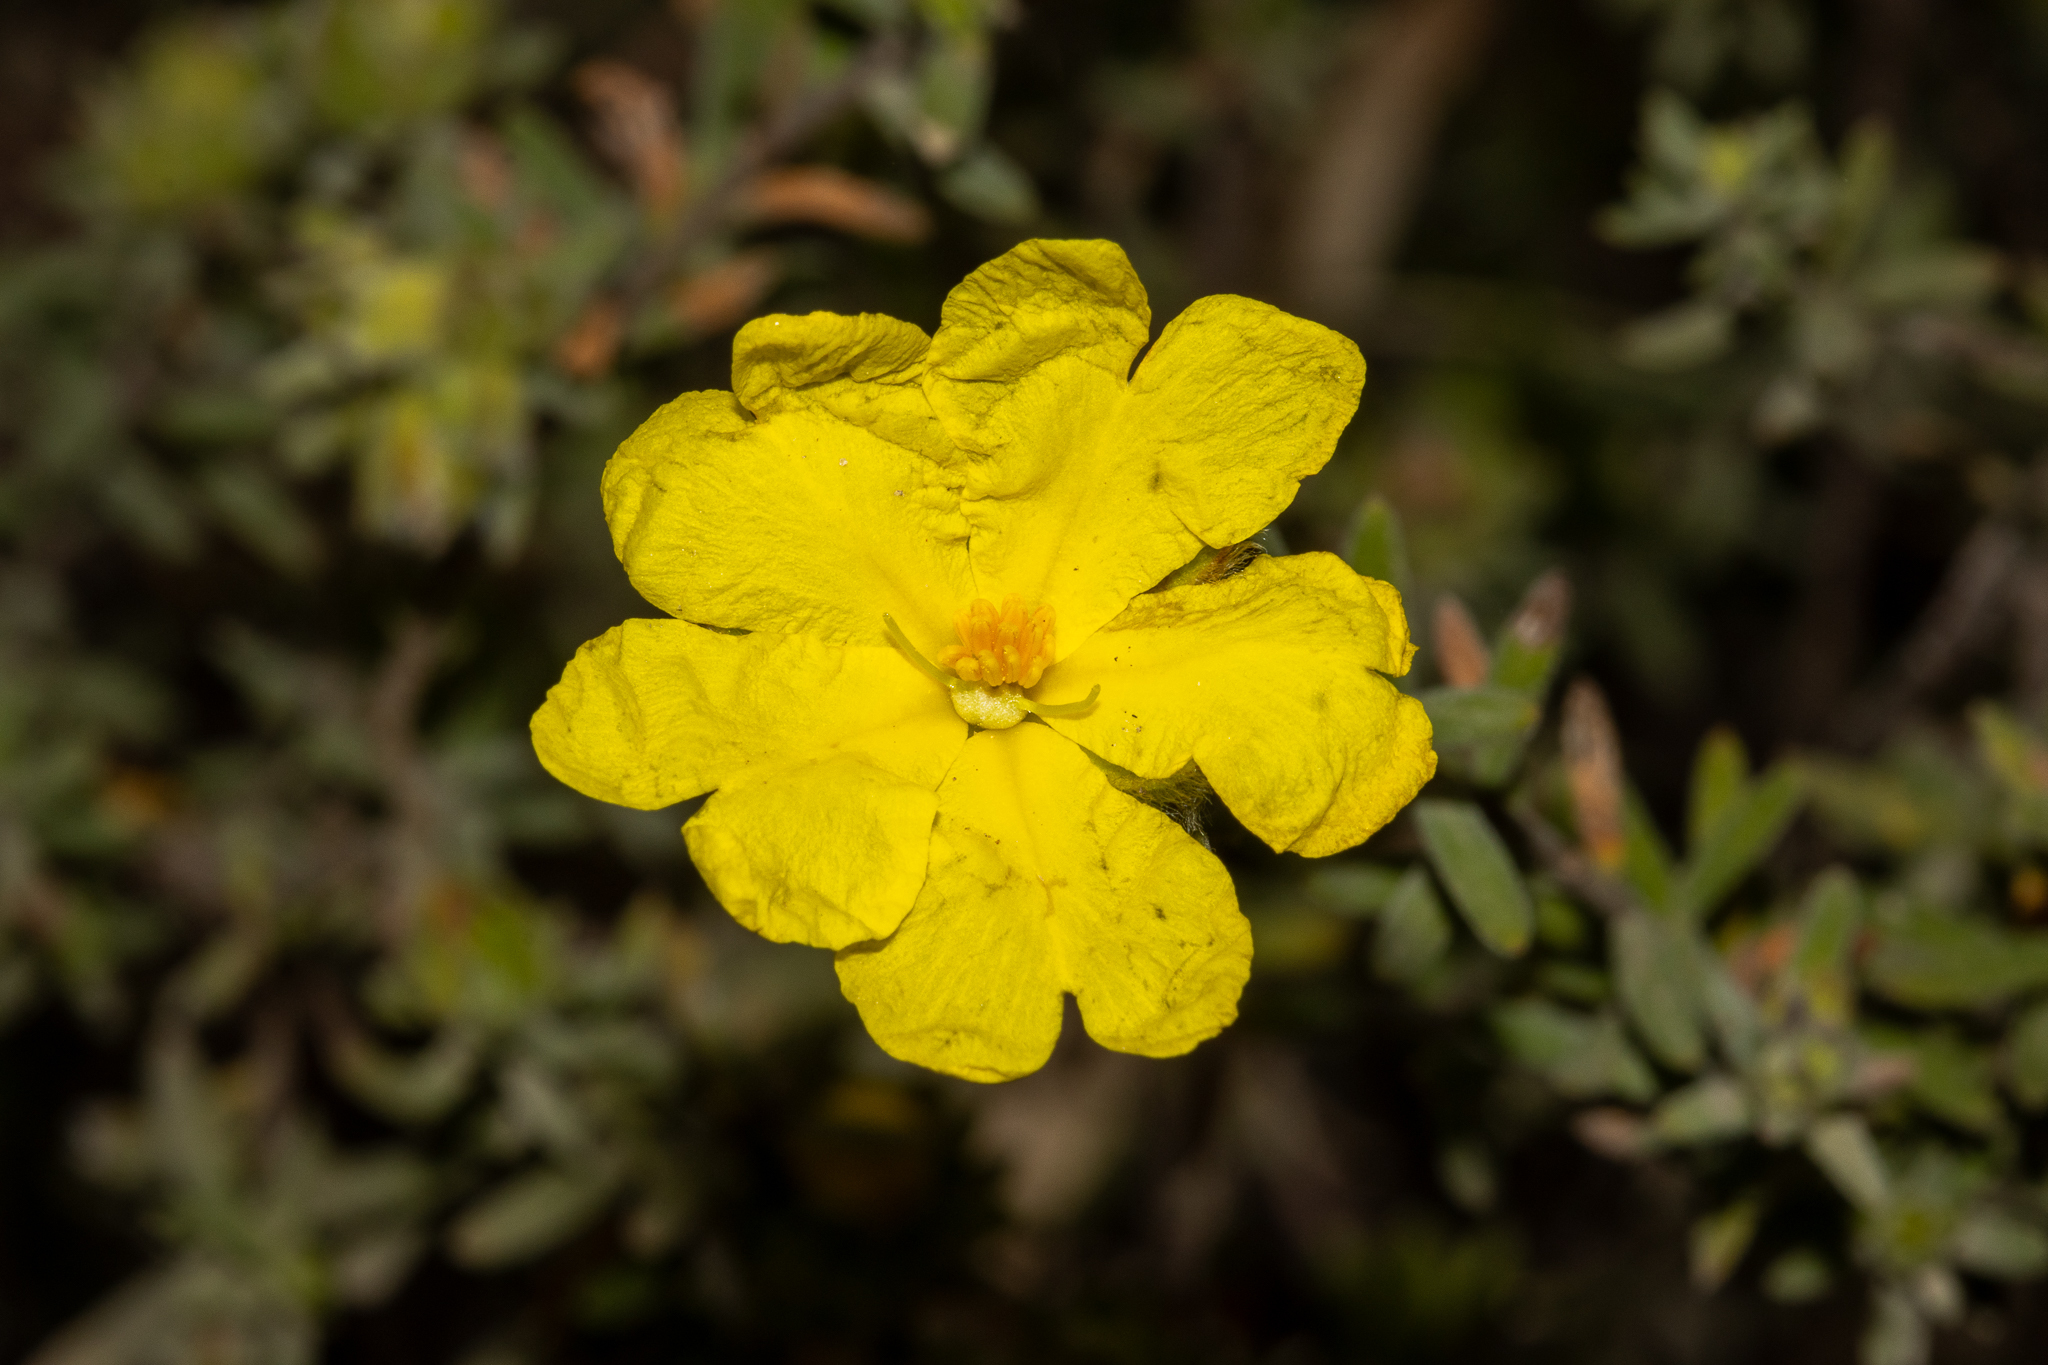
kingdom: Plantae
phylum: Tracheophyta
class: Magnoliopsida
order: Dilleniales
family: Dilleniaceae
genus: Hibbertia
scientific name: Hibbertia crinita
